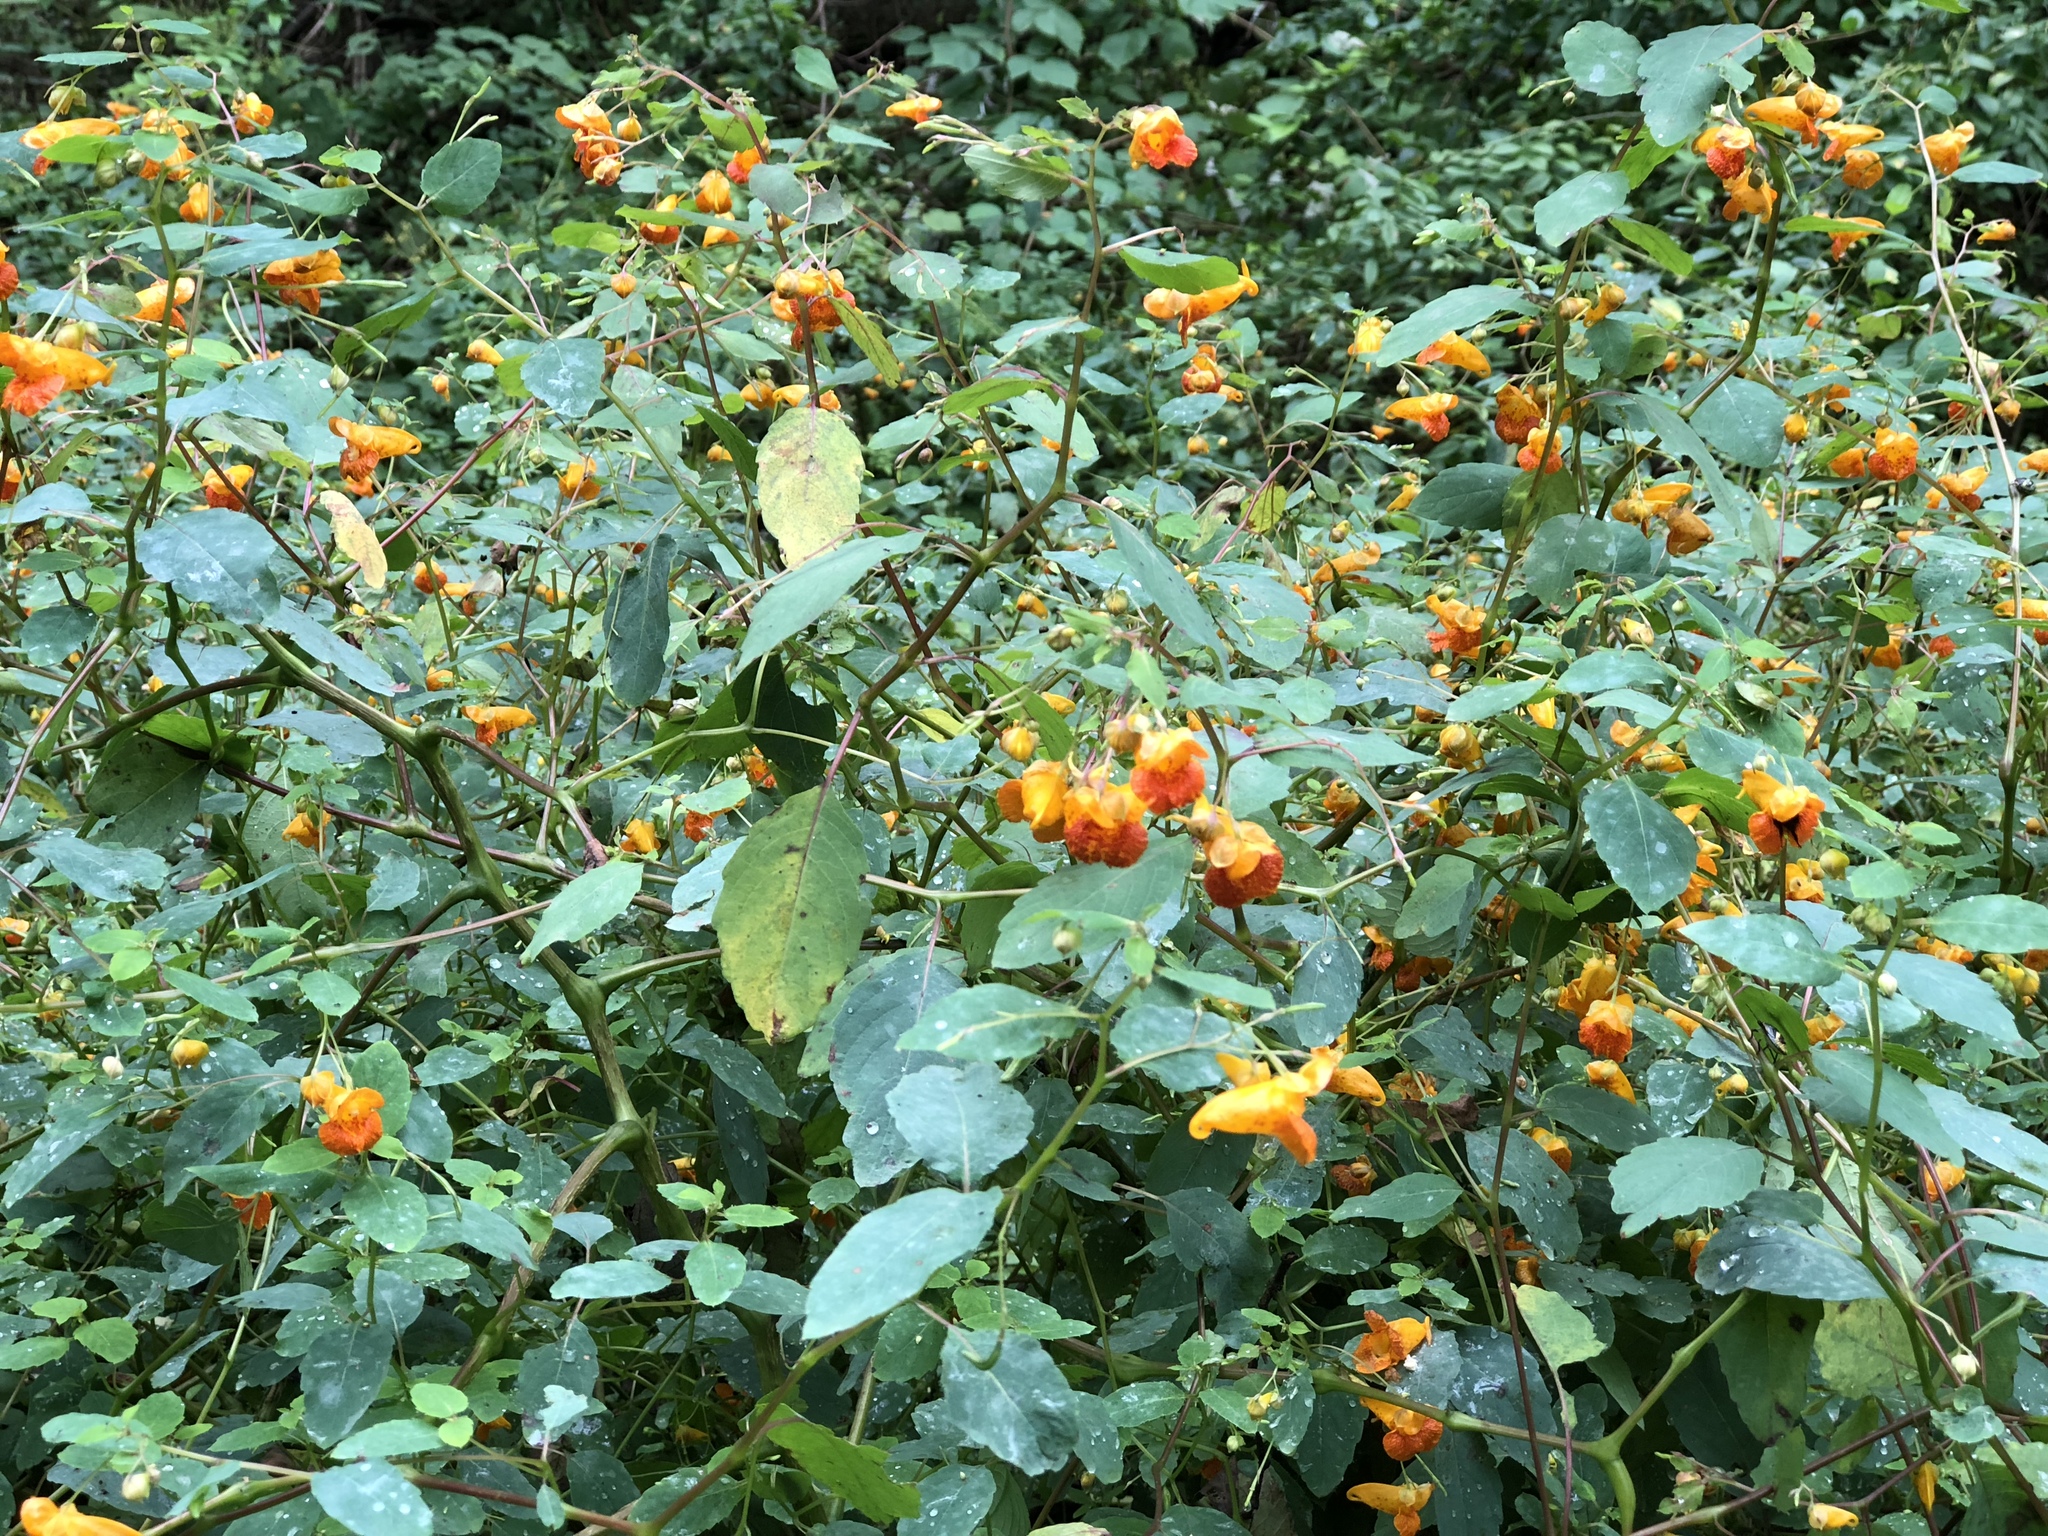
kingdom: Plantae
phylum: Tracheophyta
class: Magnoliopsida
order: Ericales
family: Balsaminaceae
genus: Impatiens
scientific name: Impatiens capensis
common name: Orange balsam
